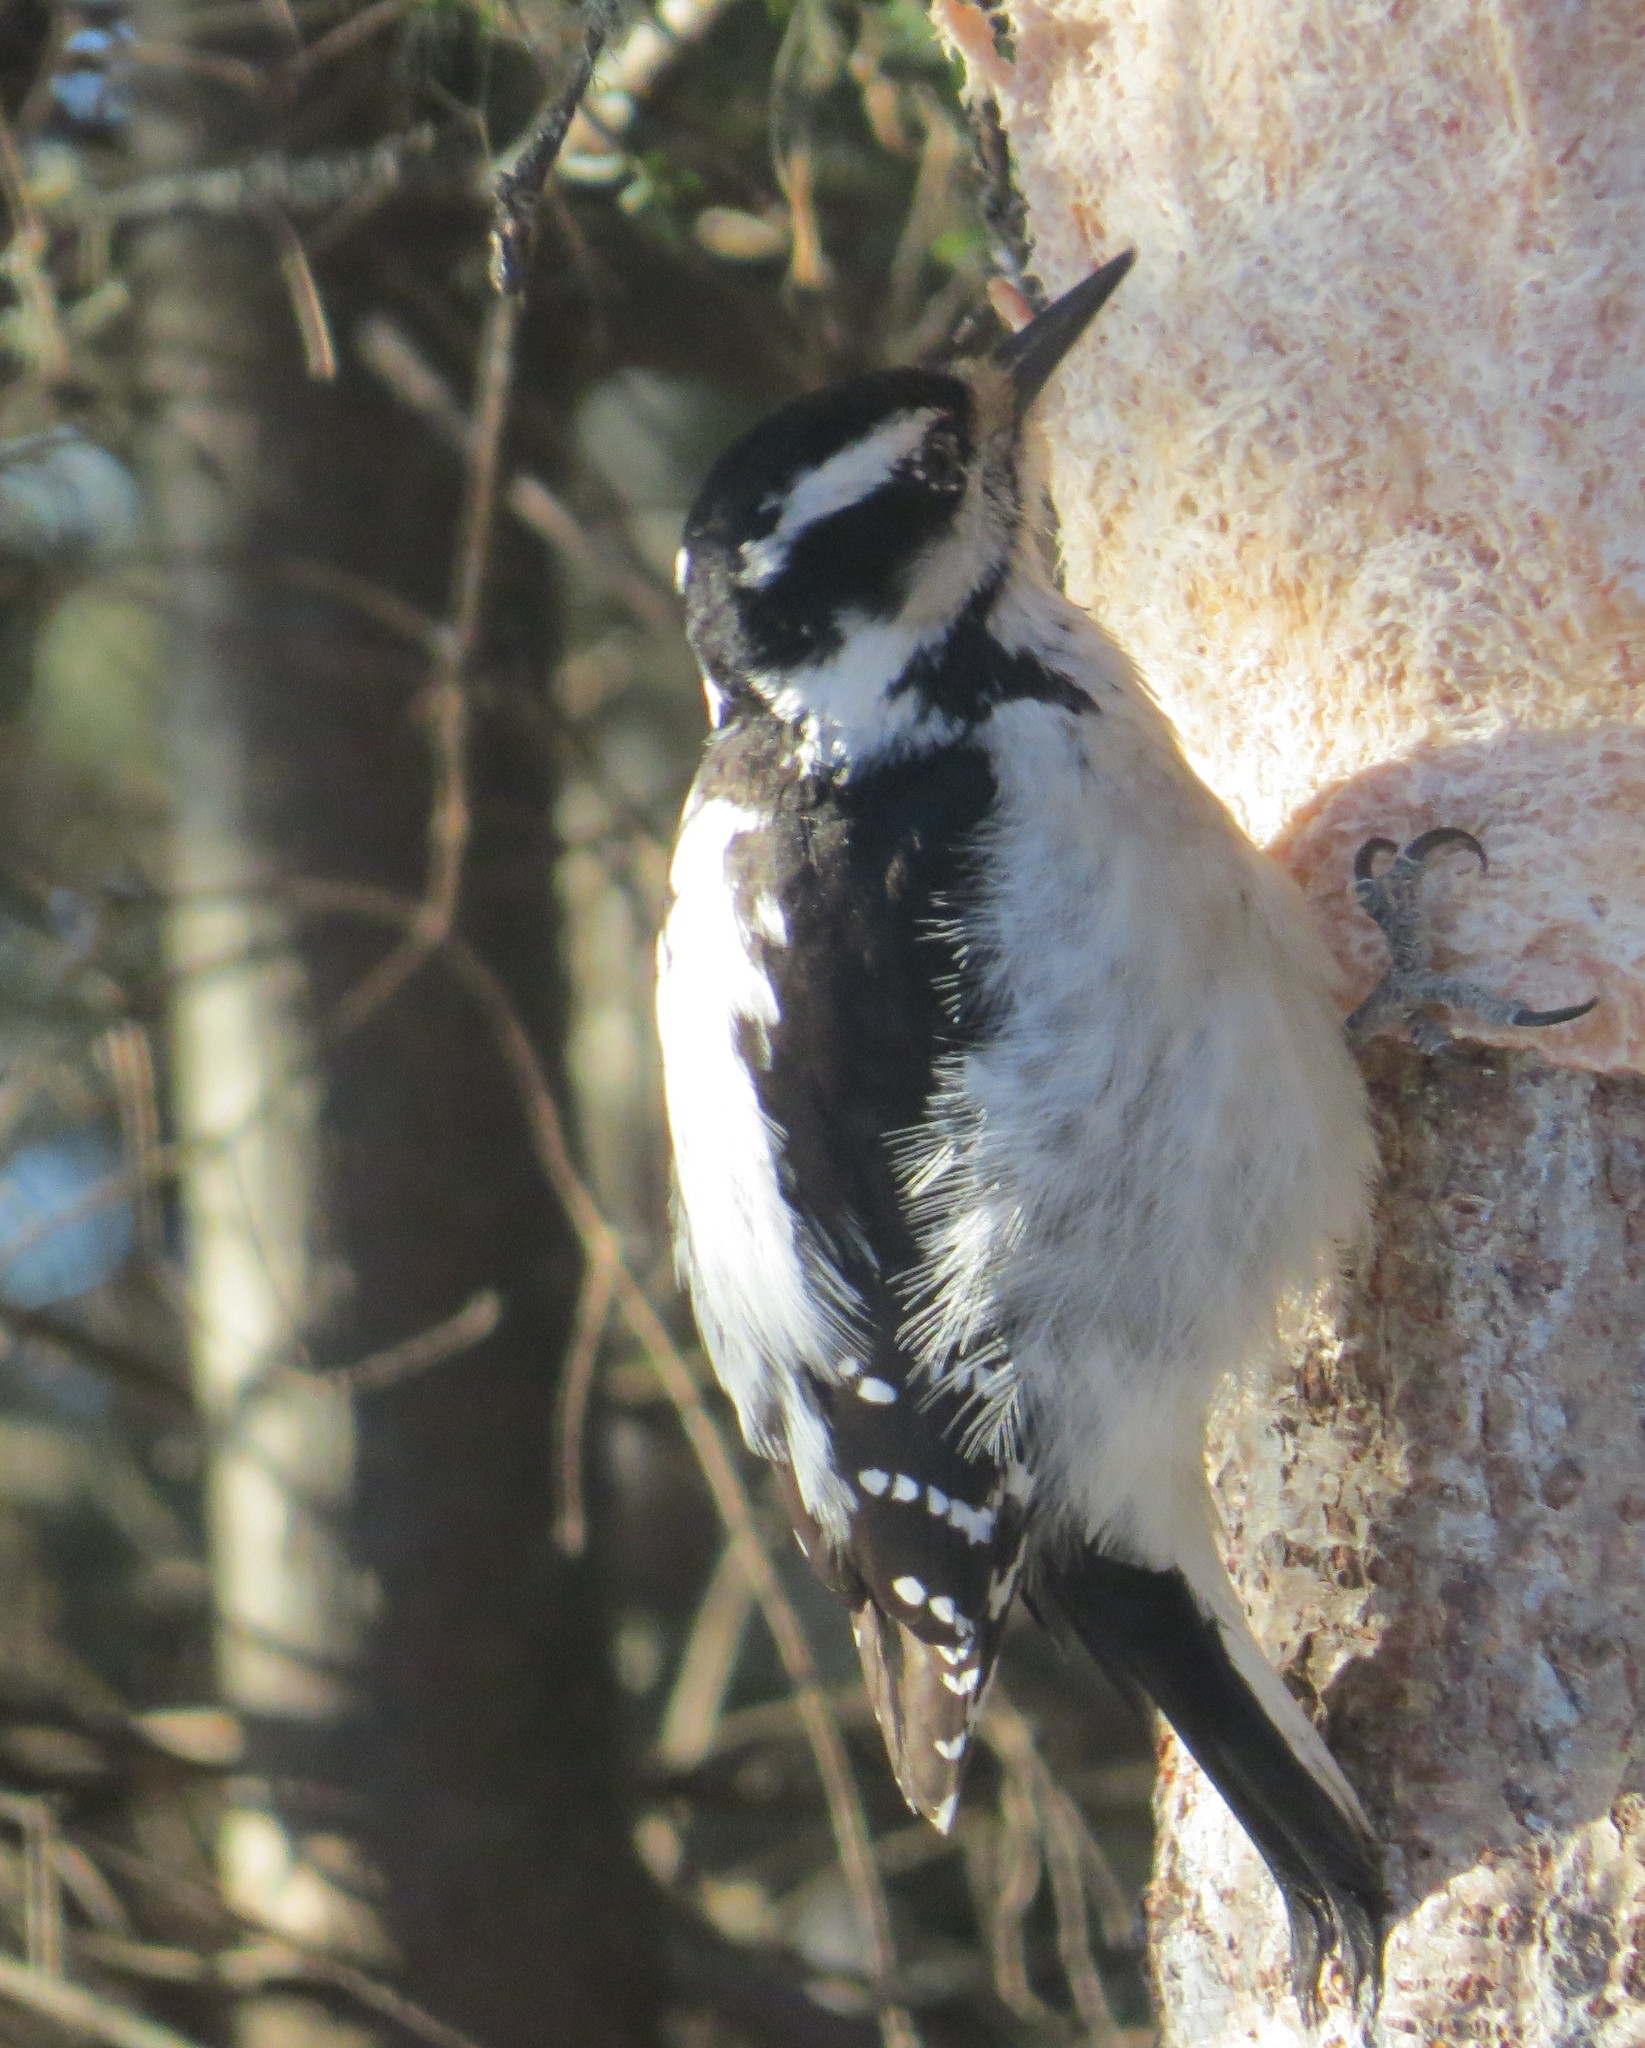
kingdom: Animalia
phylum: Chordata
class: Aves
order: Piciformes
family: Picidae
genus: Leuconotopicus
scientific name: Leuconotopicus villosus
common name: Hairy woodpecker
